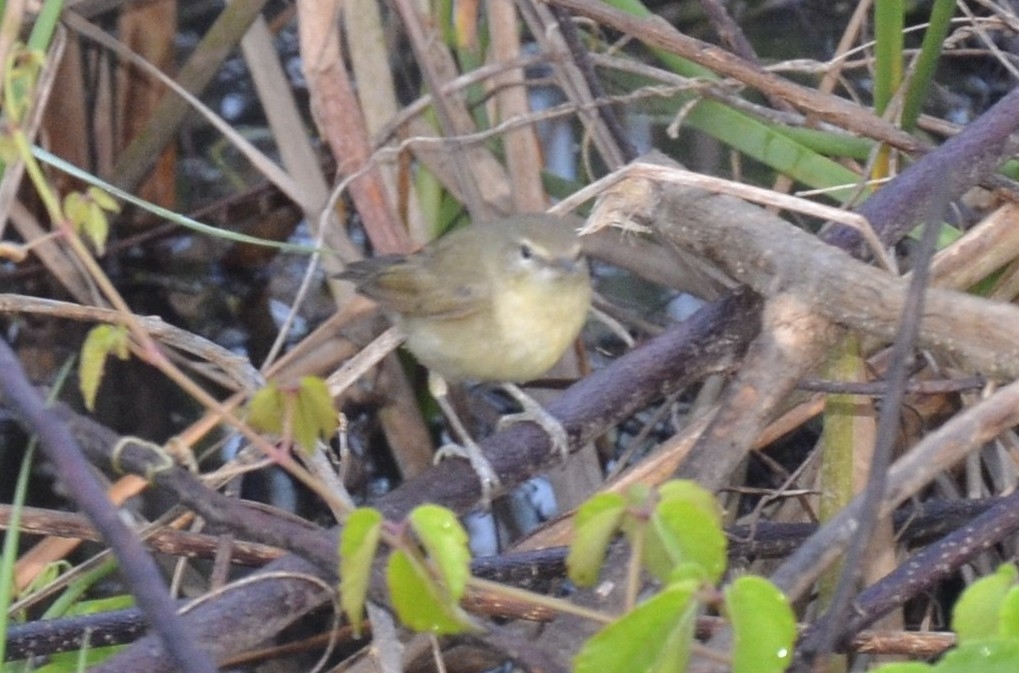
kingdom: Animalia
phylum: Chordata
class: Aves
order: Passeriformes
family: Acrocephalidae
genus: Acrocephalus
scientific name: Acrocephalus dumetorum
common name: Blyth's reed warbler
